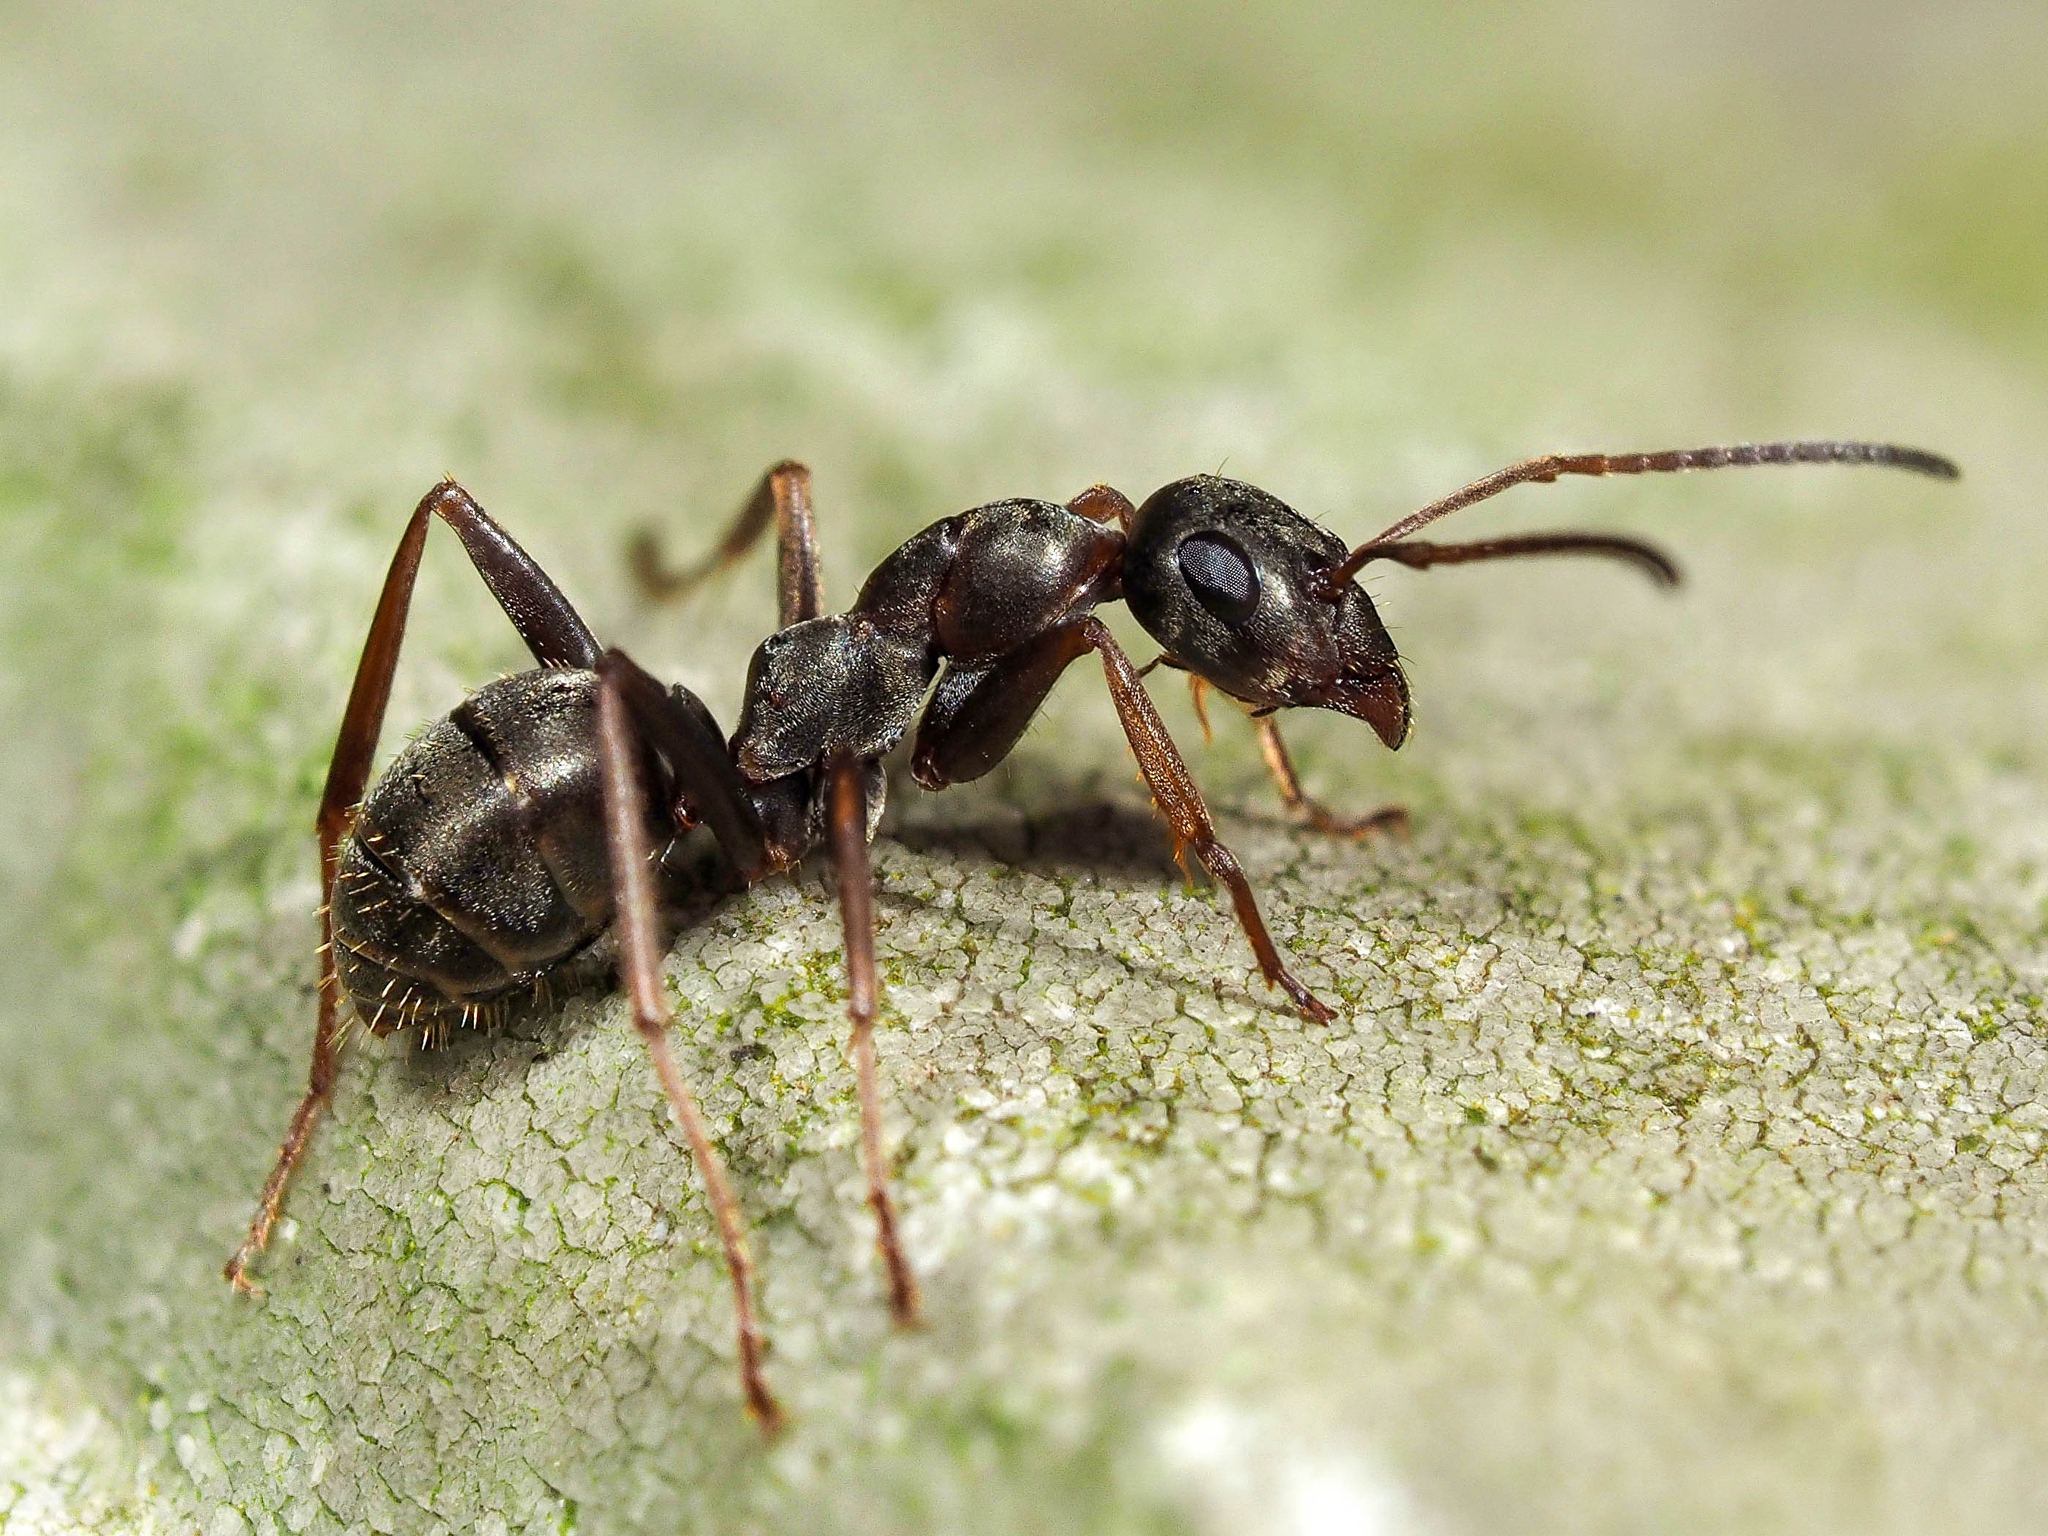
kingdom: Animalia
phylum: Arthropoda
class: Insecta
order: Hymenoptera
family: Formicidae
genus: Formica
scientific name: Formica cunicularia
